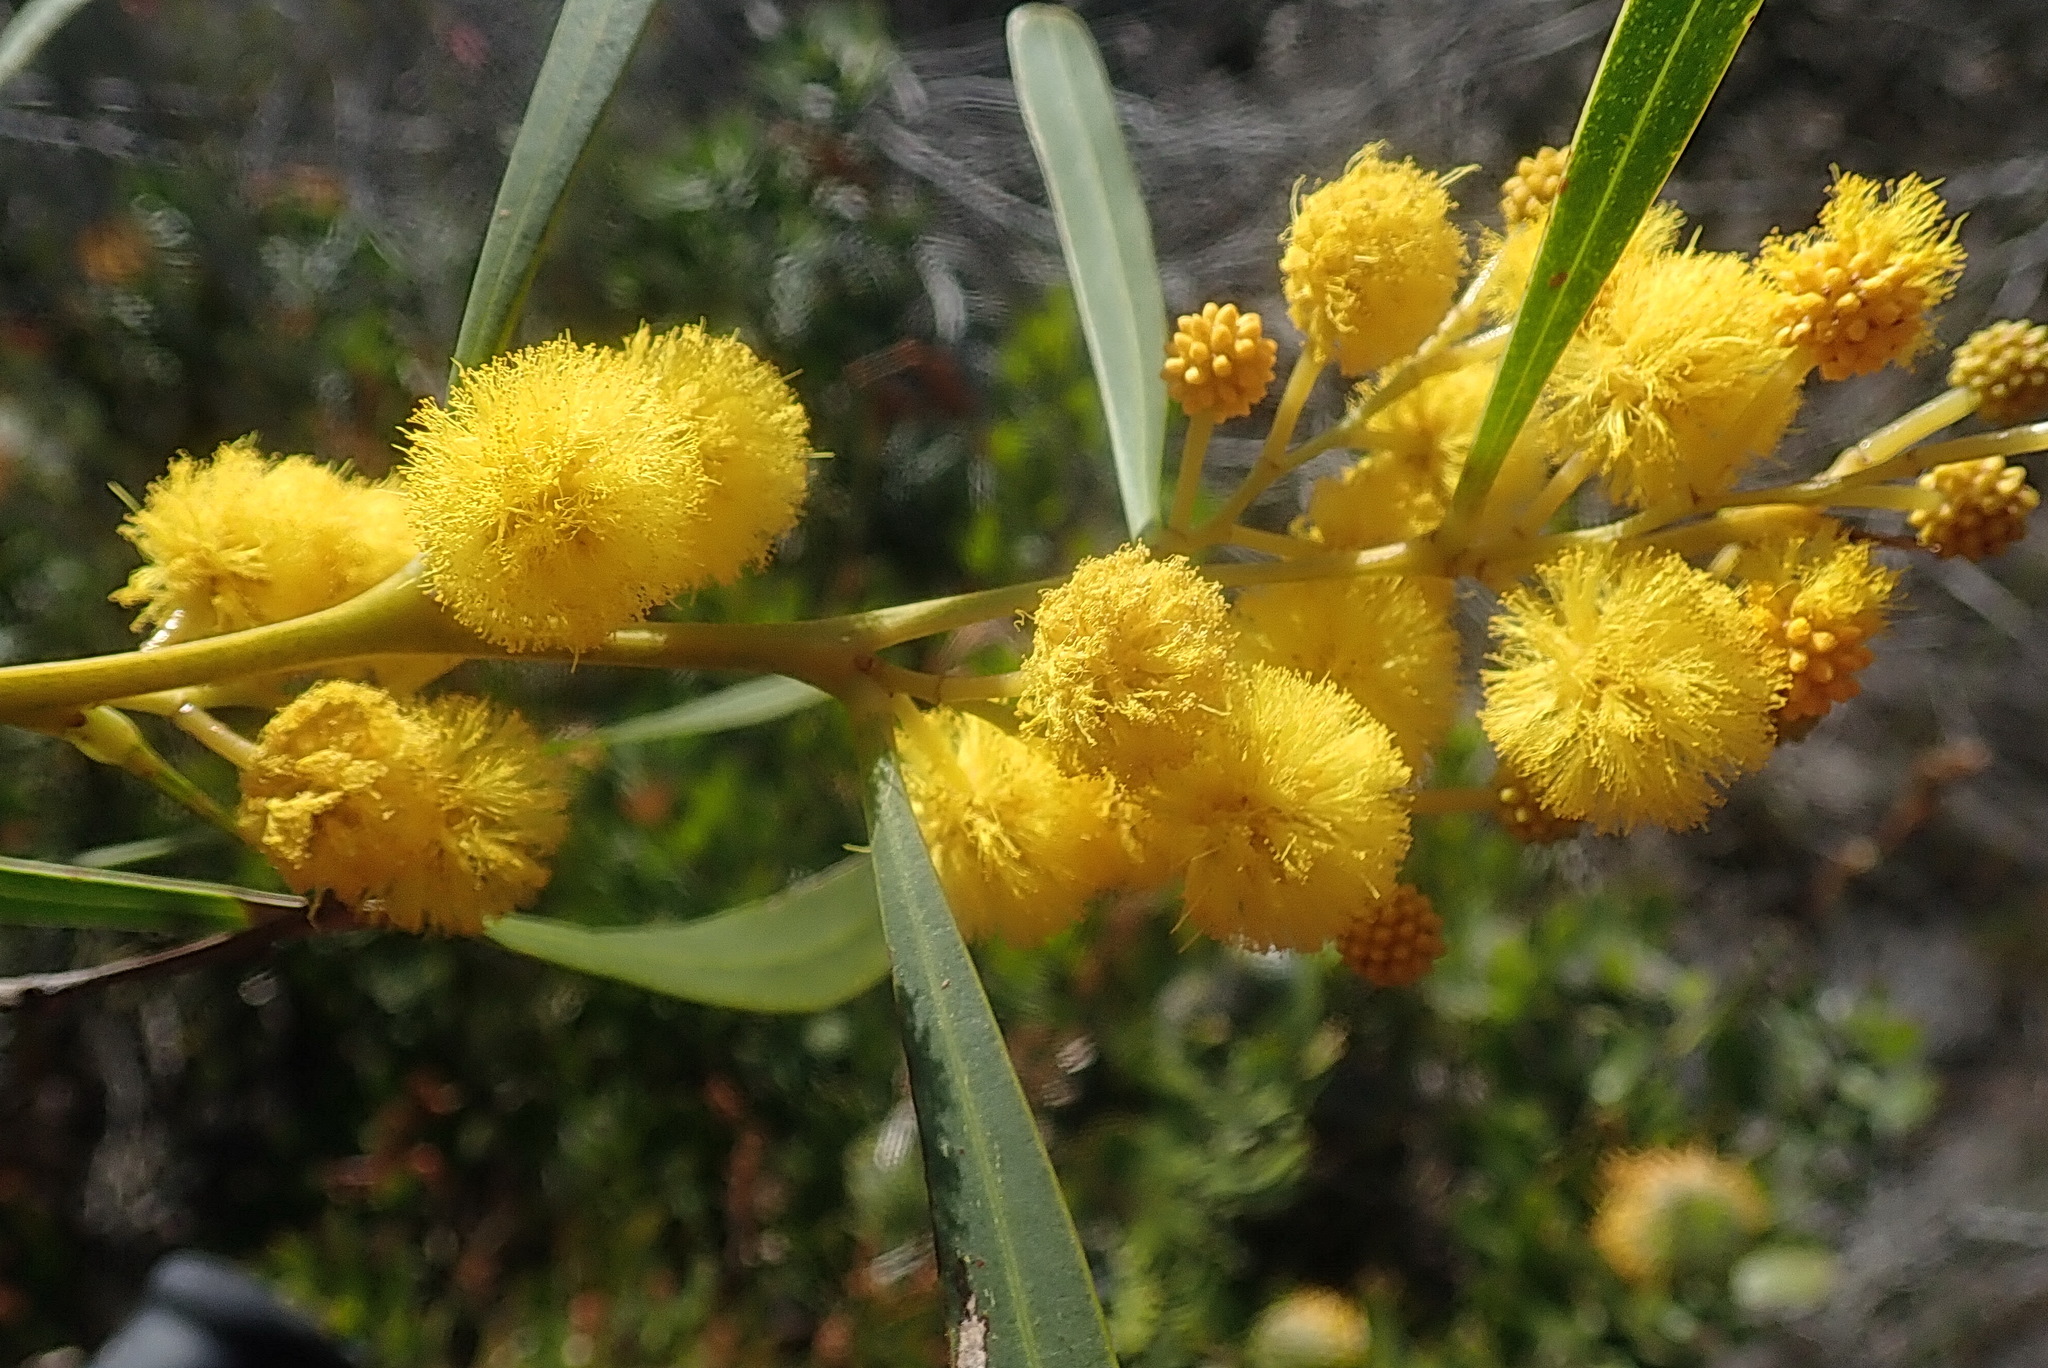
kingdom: Plantae
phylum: Tracheophyta
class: Magnoliopsida
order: Fabales
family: Fabaceae
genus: Acacia
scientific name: Acacia saligna
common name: Orange wattle
